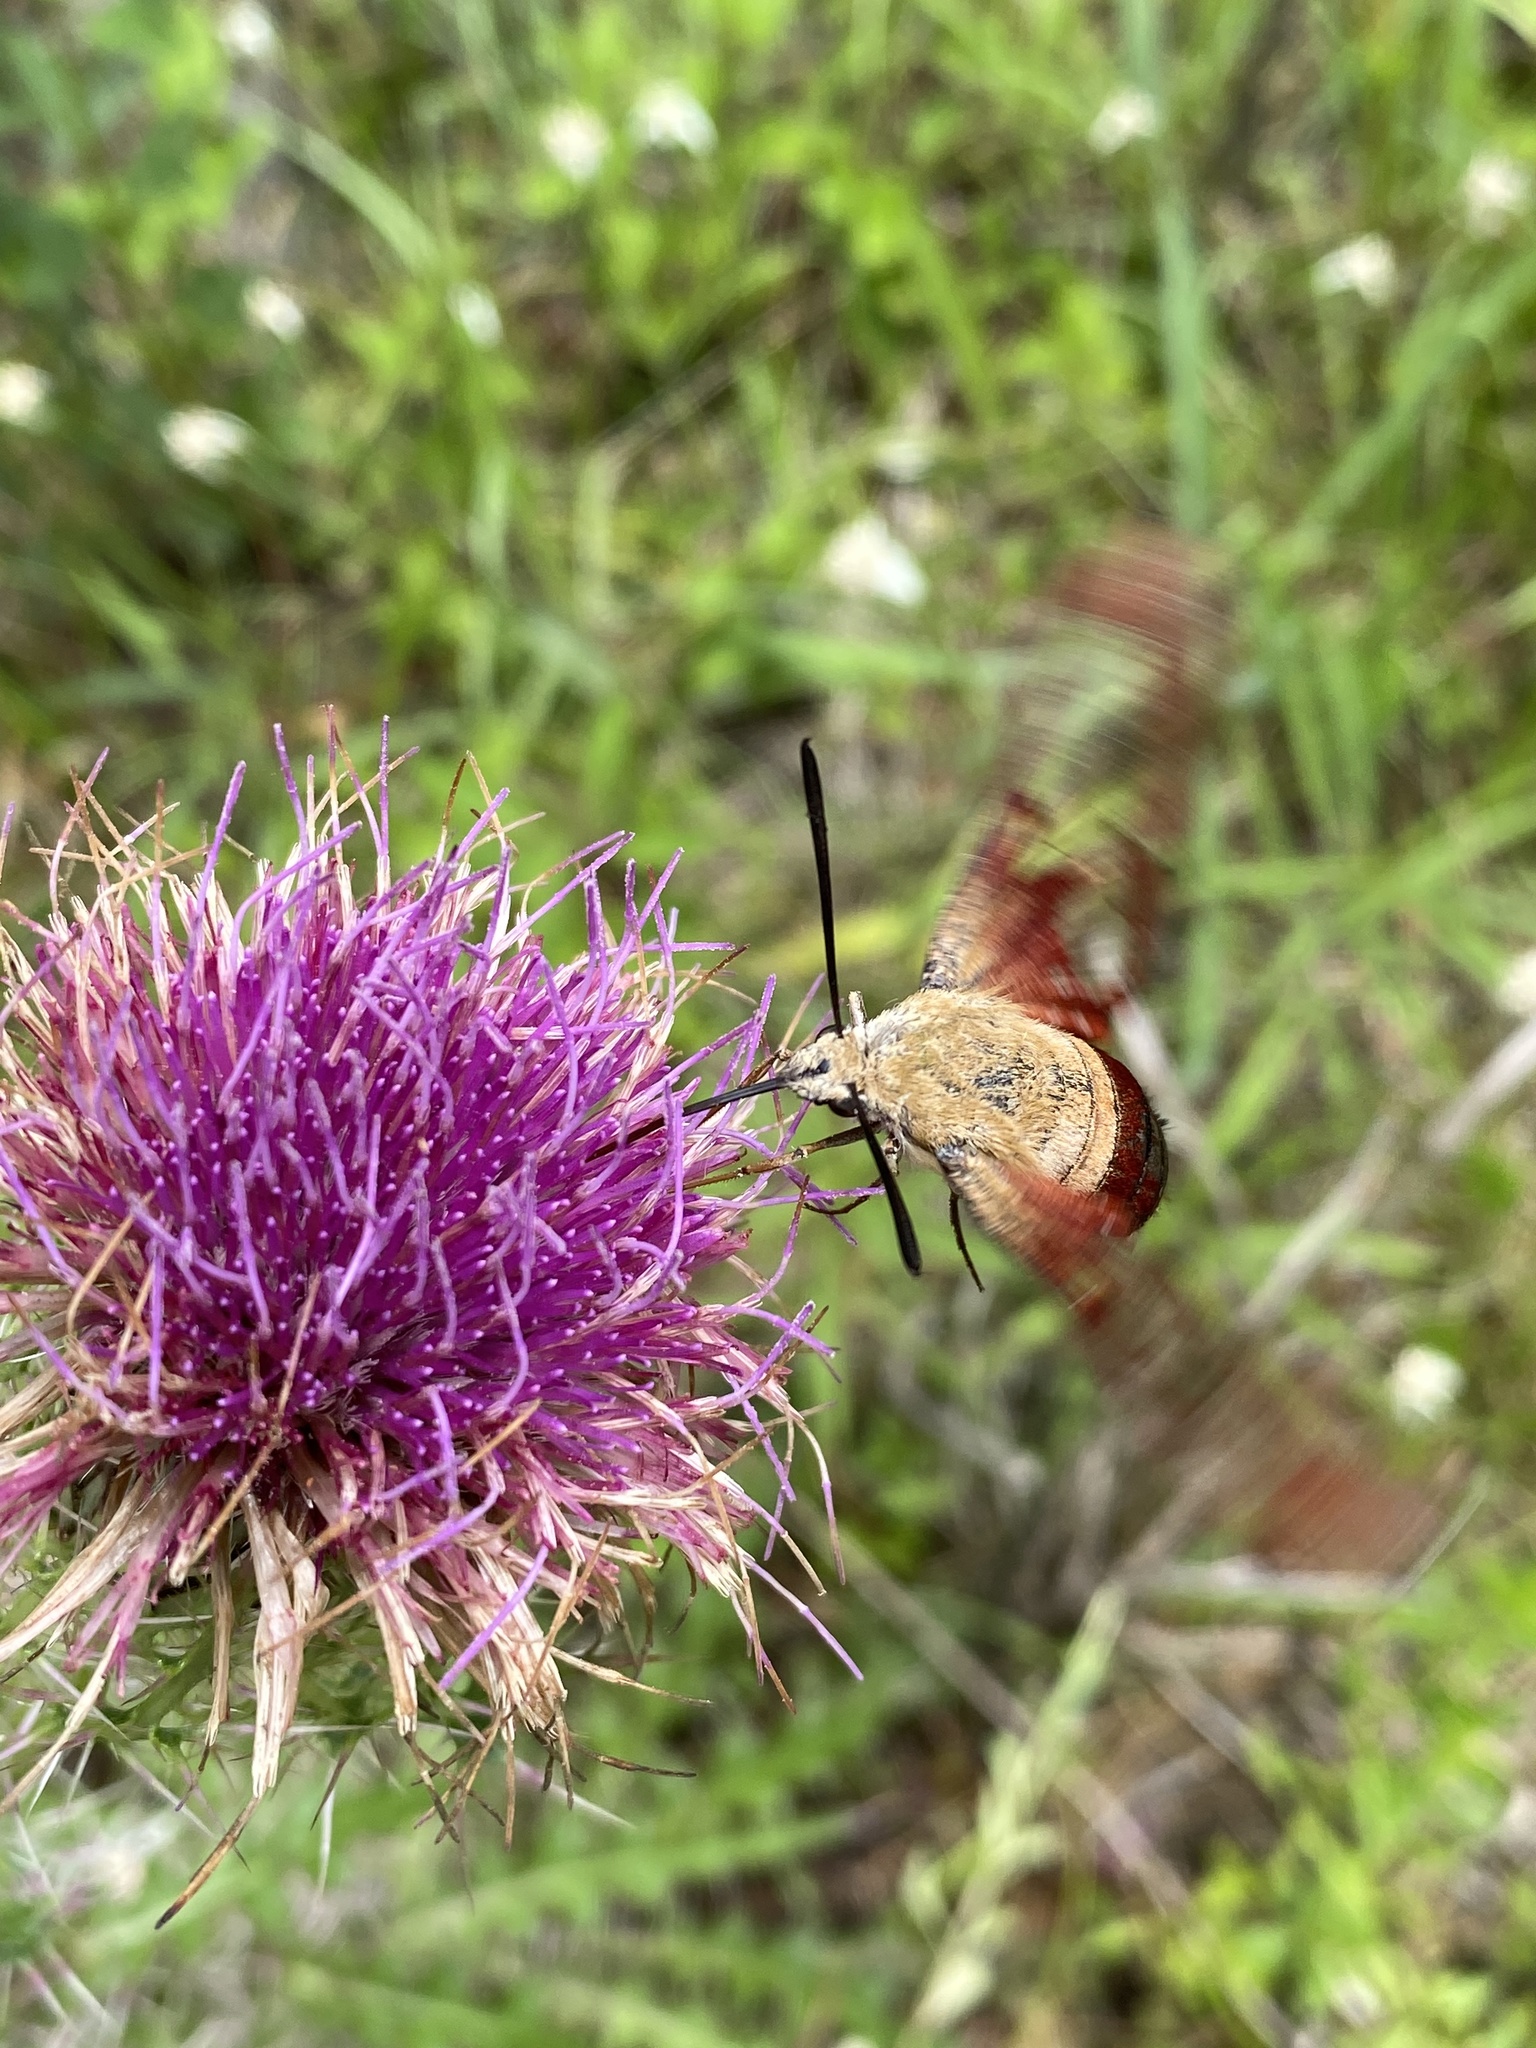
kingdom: Animalia
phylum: Arthropoda
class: Insecta
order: Lepidoptera
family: Sphingidae
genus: Hemaris
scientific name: Hemaris thysbe
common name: Common clear-wing
